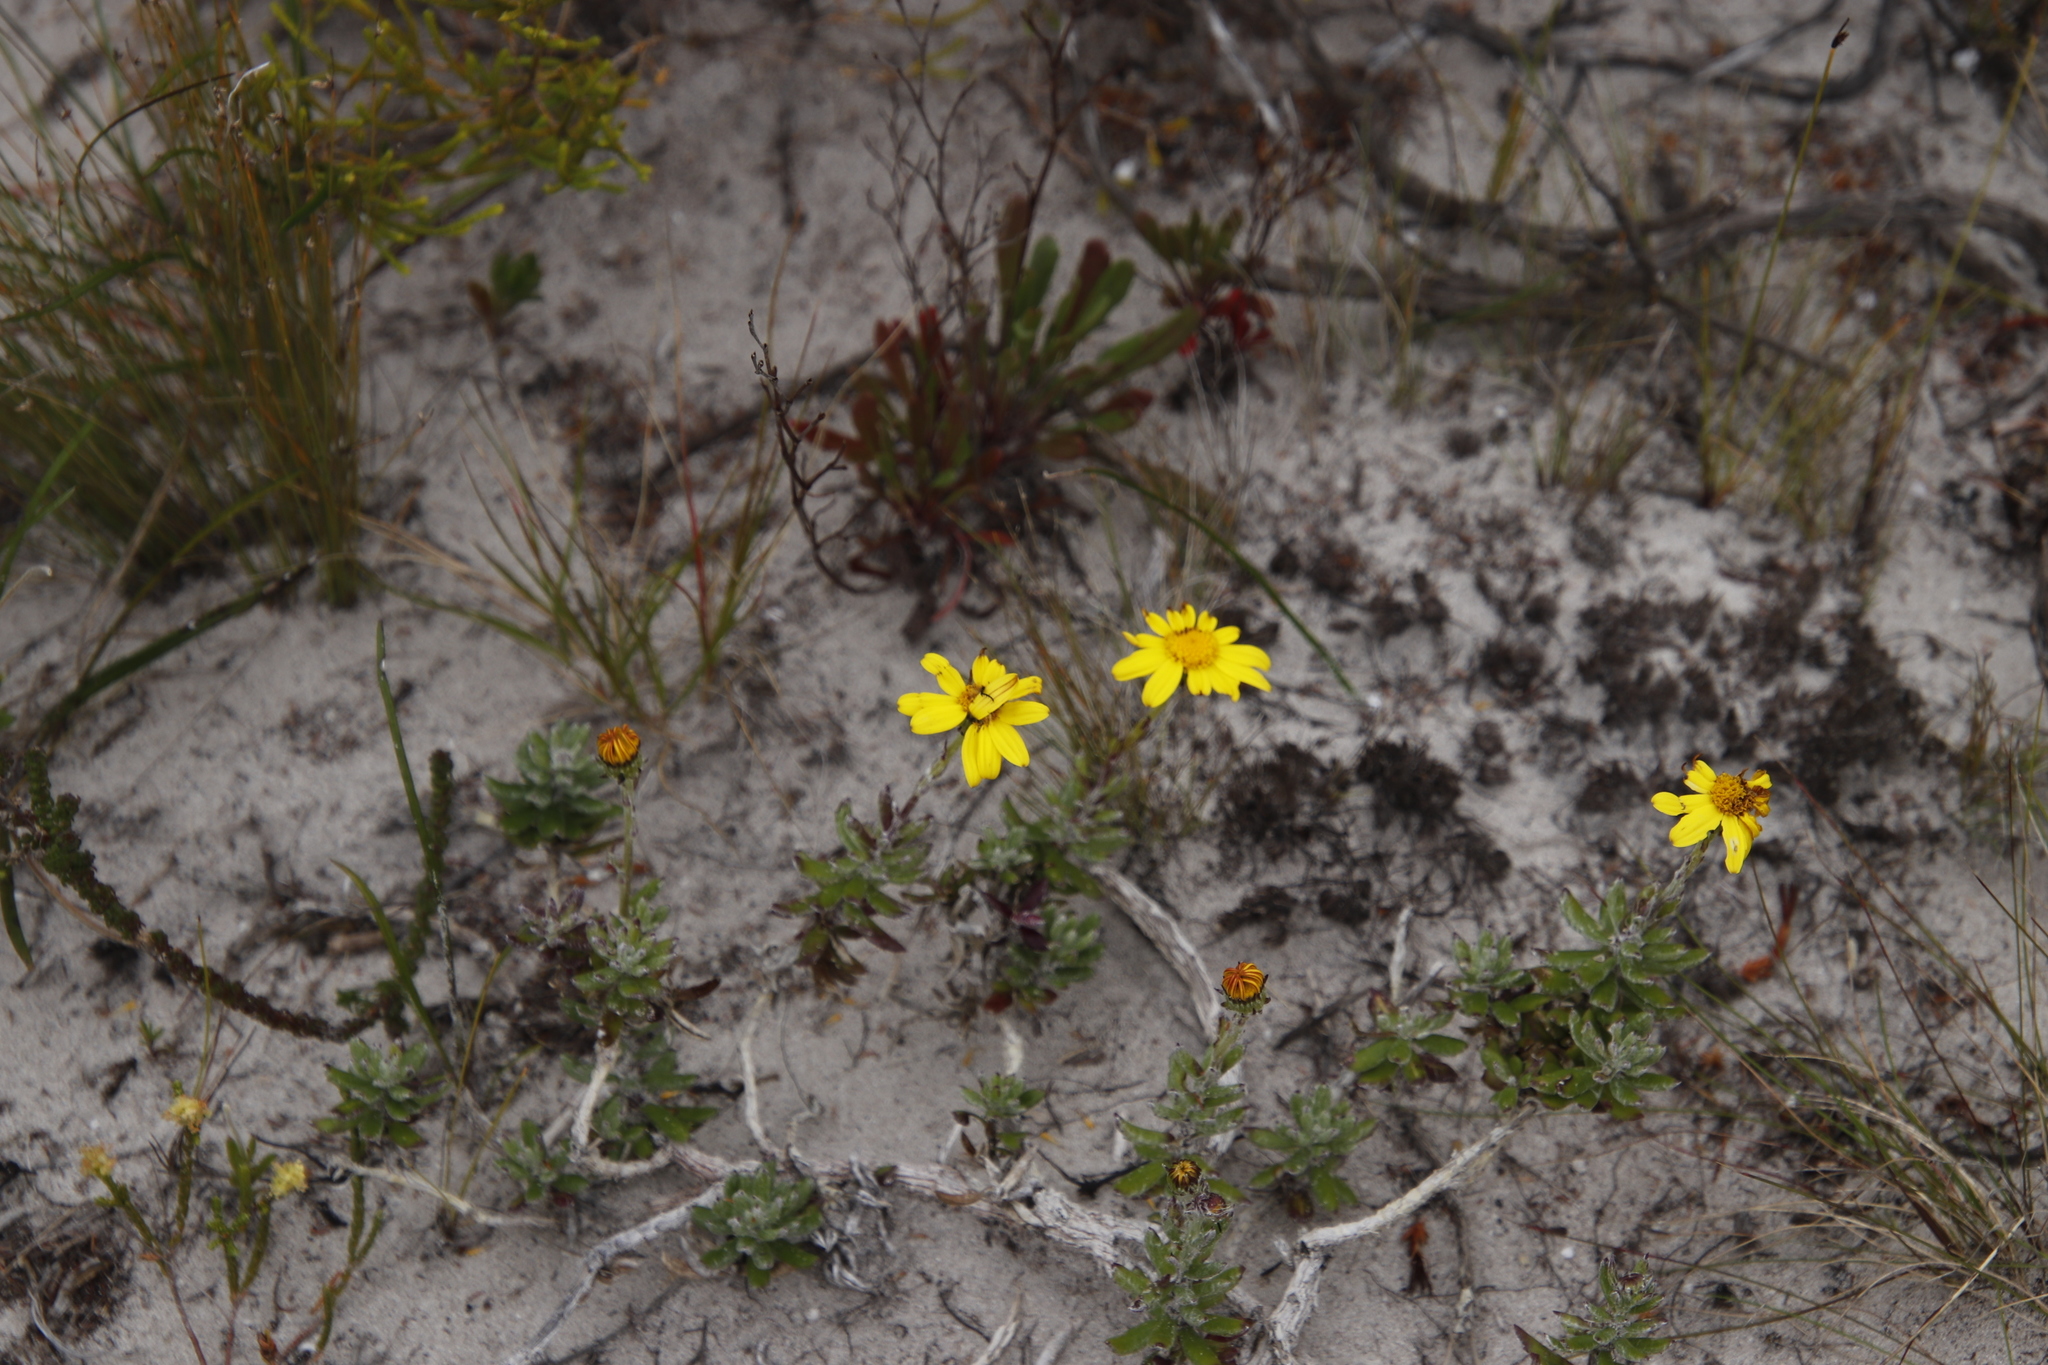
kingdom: Plantae
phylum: Tracheophyta
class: Magnoliopsida
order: Asterales
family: Asteraceae
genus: Senecio
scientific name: Senecio arniciflorus
